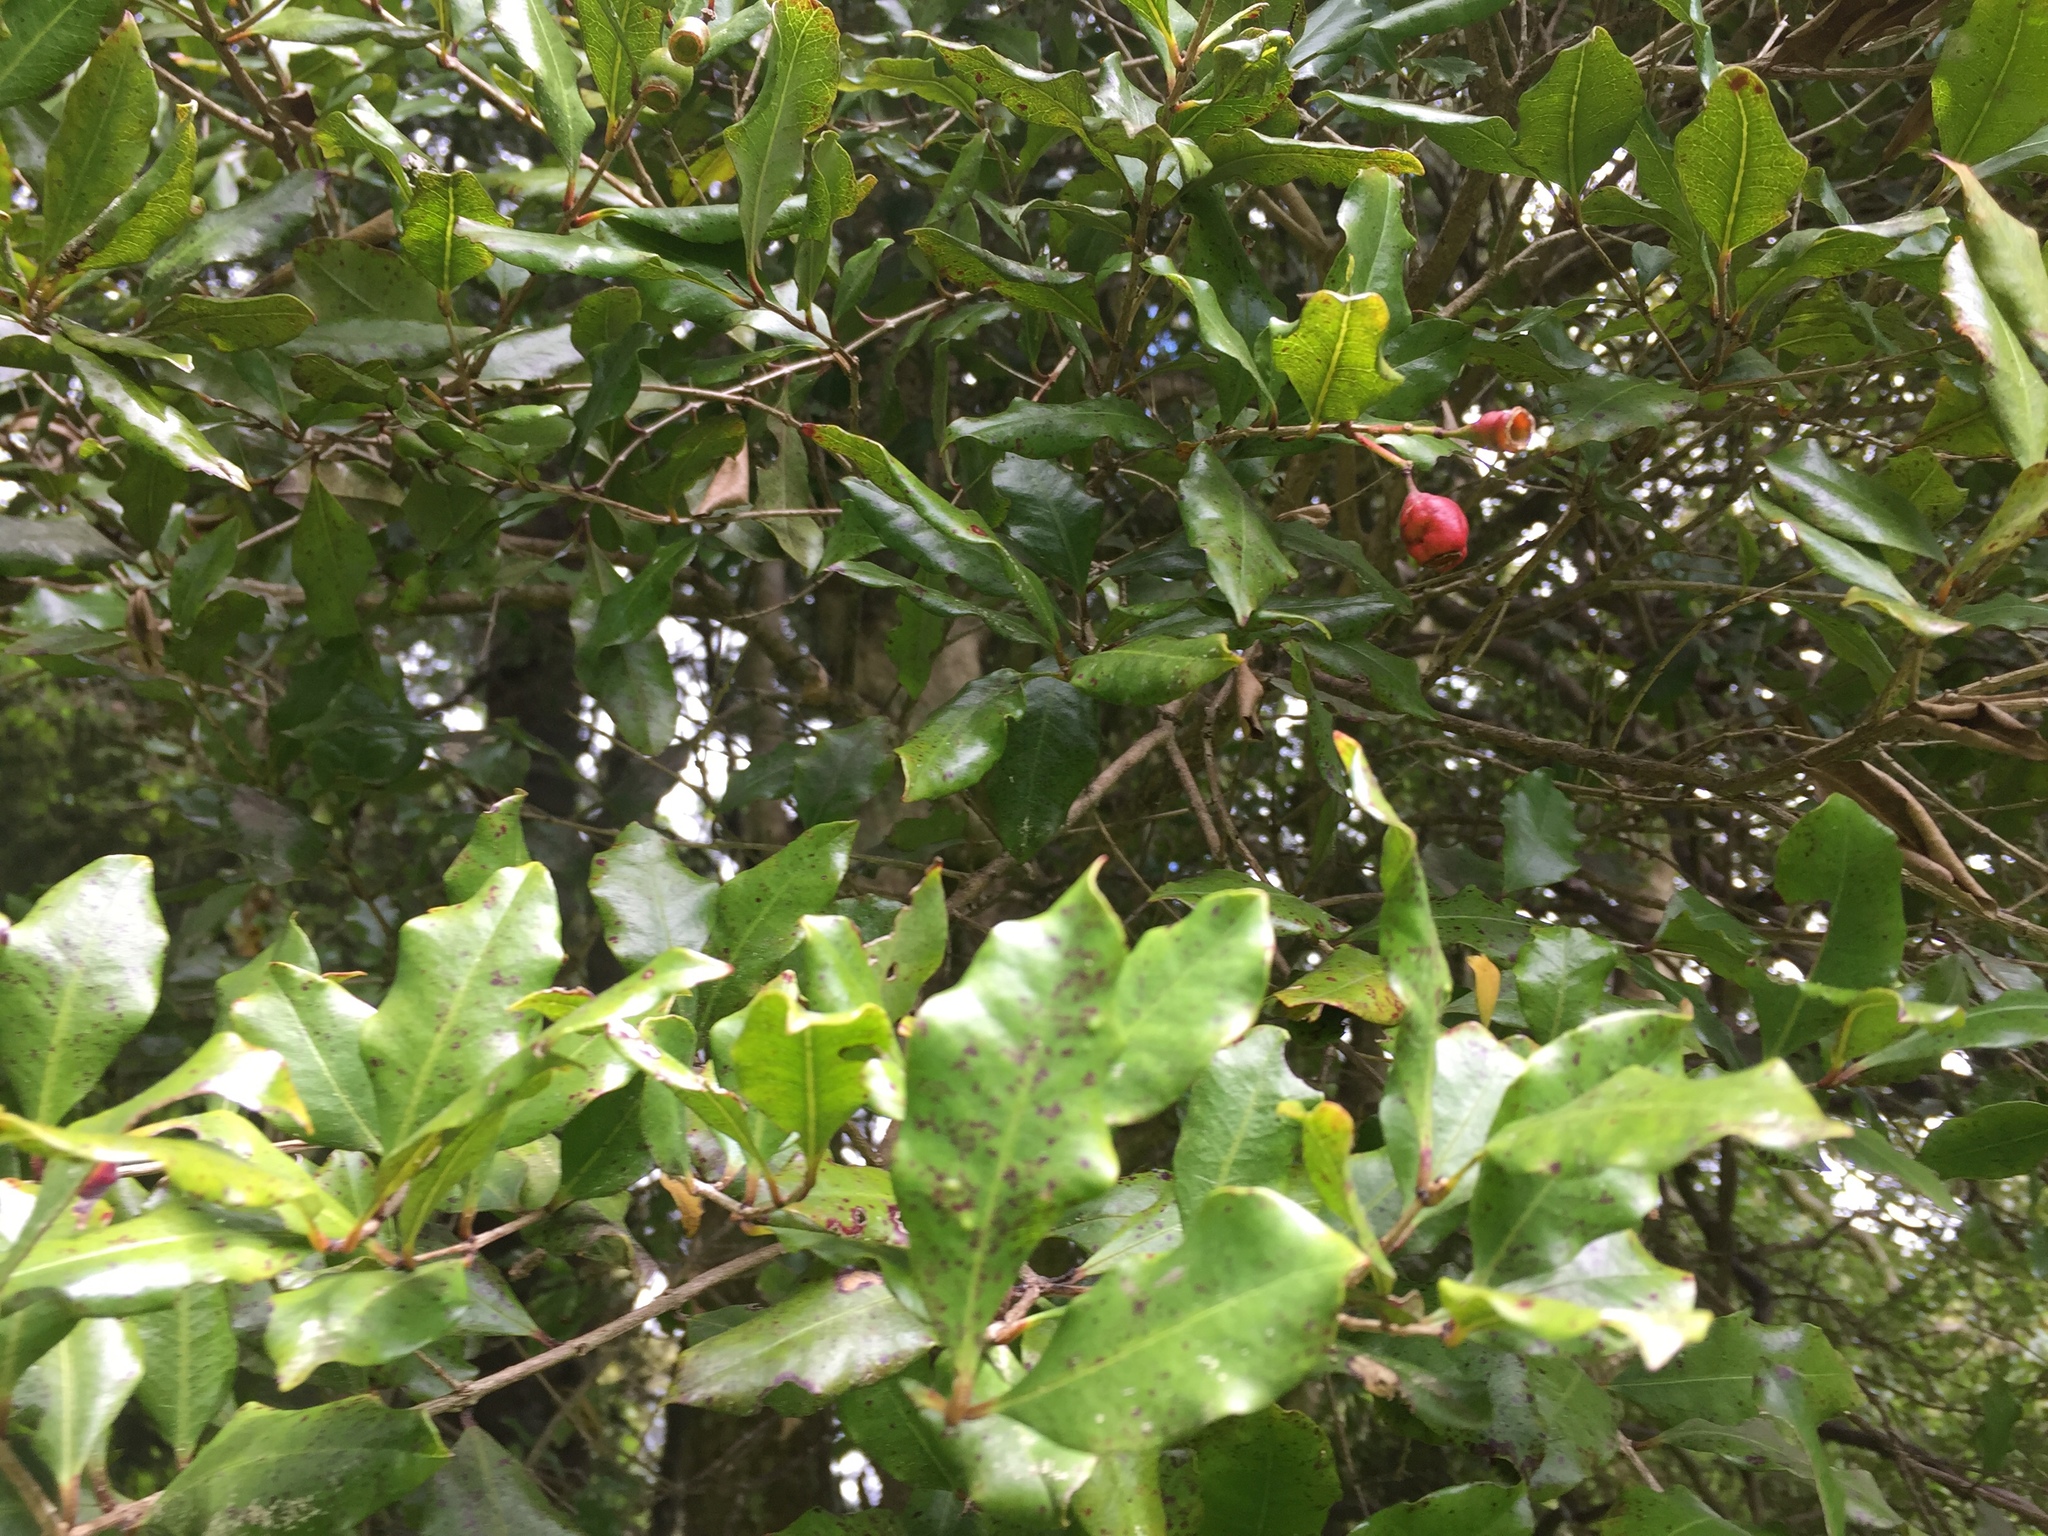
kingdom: Plantae
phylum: Tracheophyta
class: Magnoliopsida
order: Myrtales
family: Myrtaceae
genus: Syzygium
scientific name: Syzygium maire
